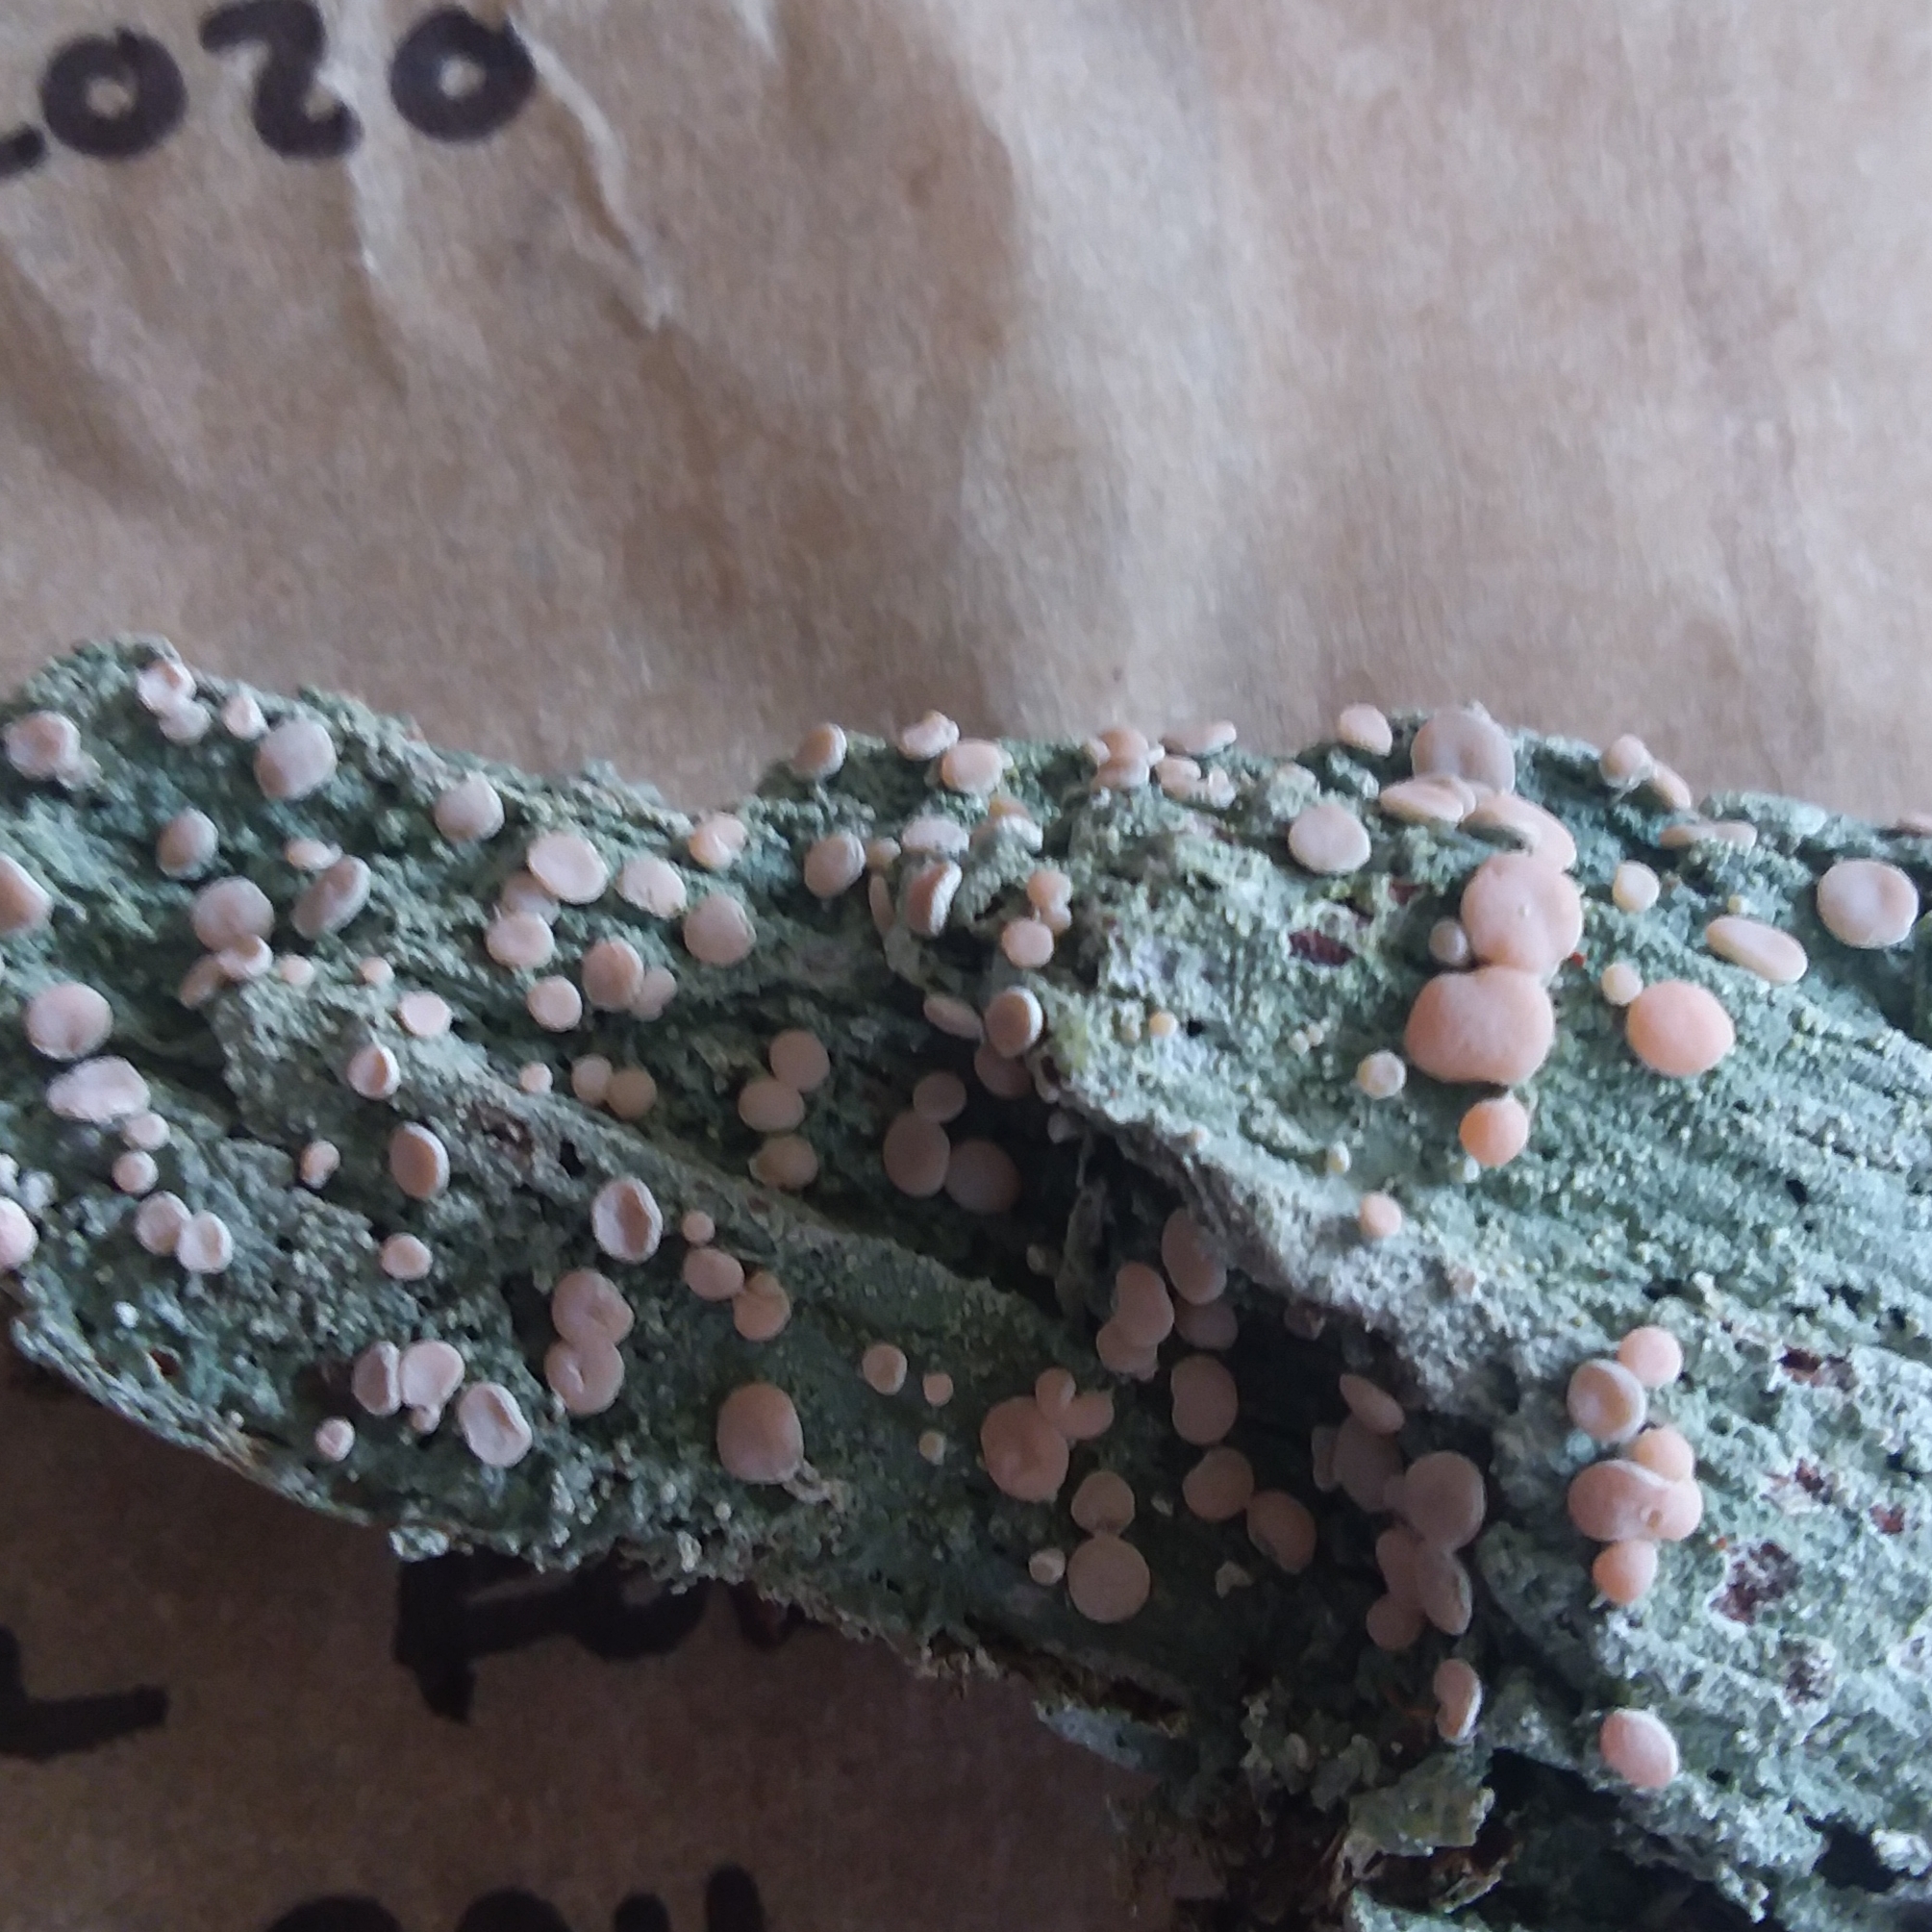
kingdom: Fungi
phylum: Ascomycota
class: Lecanoromycetes
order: Pertusariales
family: Icmadophilaceae
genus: Icmadophila
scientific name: Icmadophila ericetorum
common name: Candy lichen
